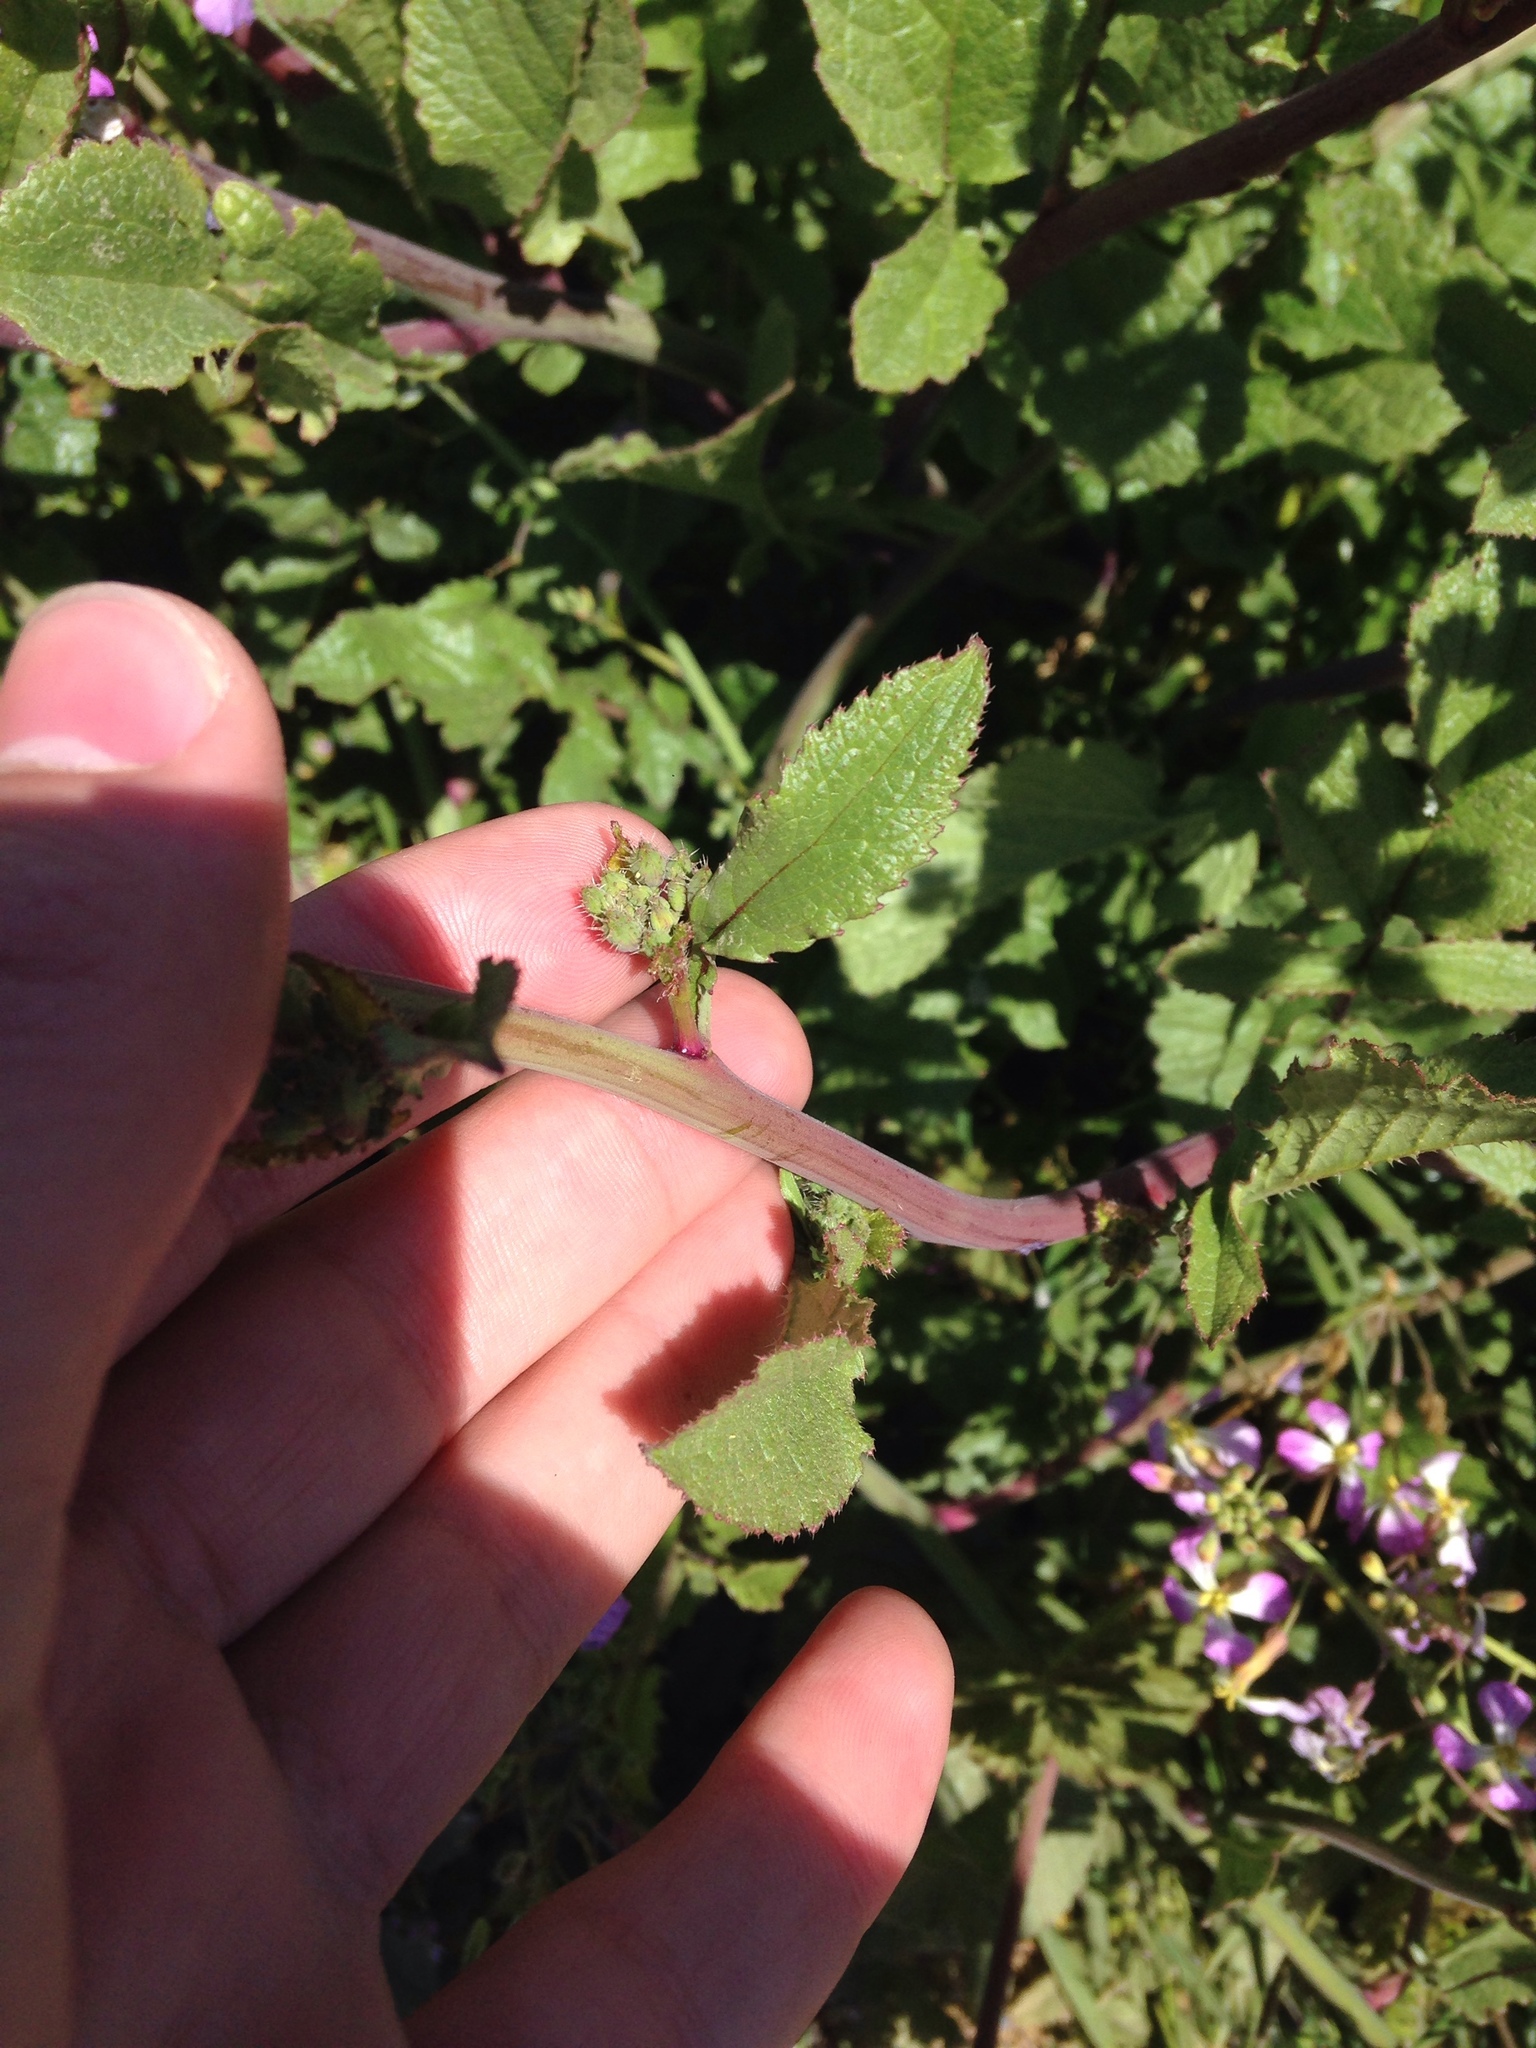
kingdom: Plantae
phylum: Tracheophyta
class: Magnoliopsida
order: Brassicales
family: Brassicaceae
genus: Raphanus
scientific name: Raphanus sativus
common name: Cultivated radish
